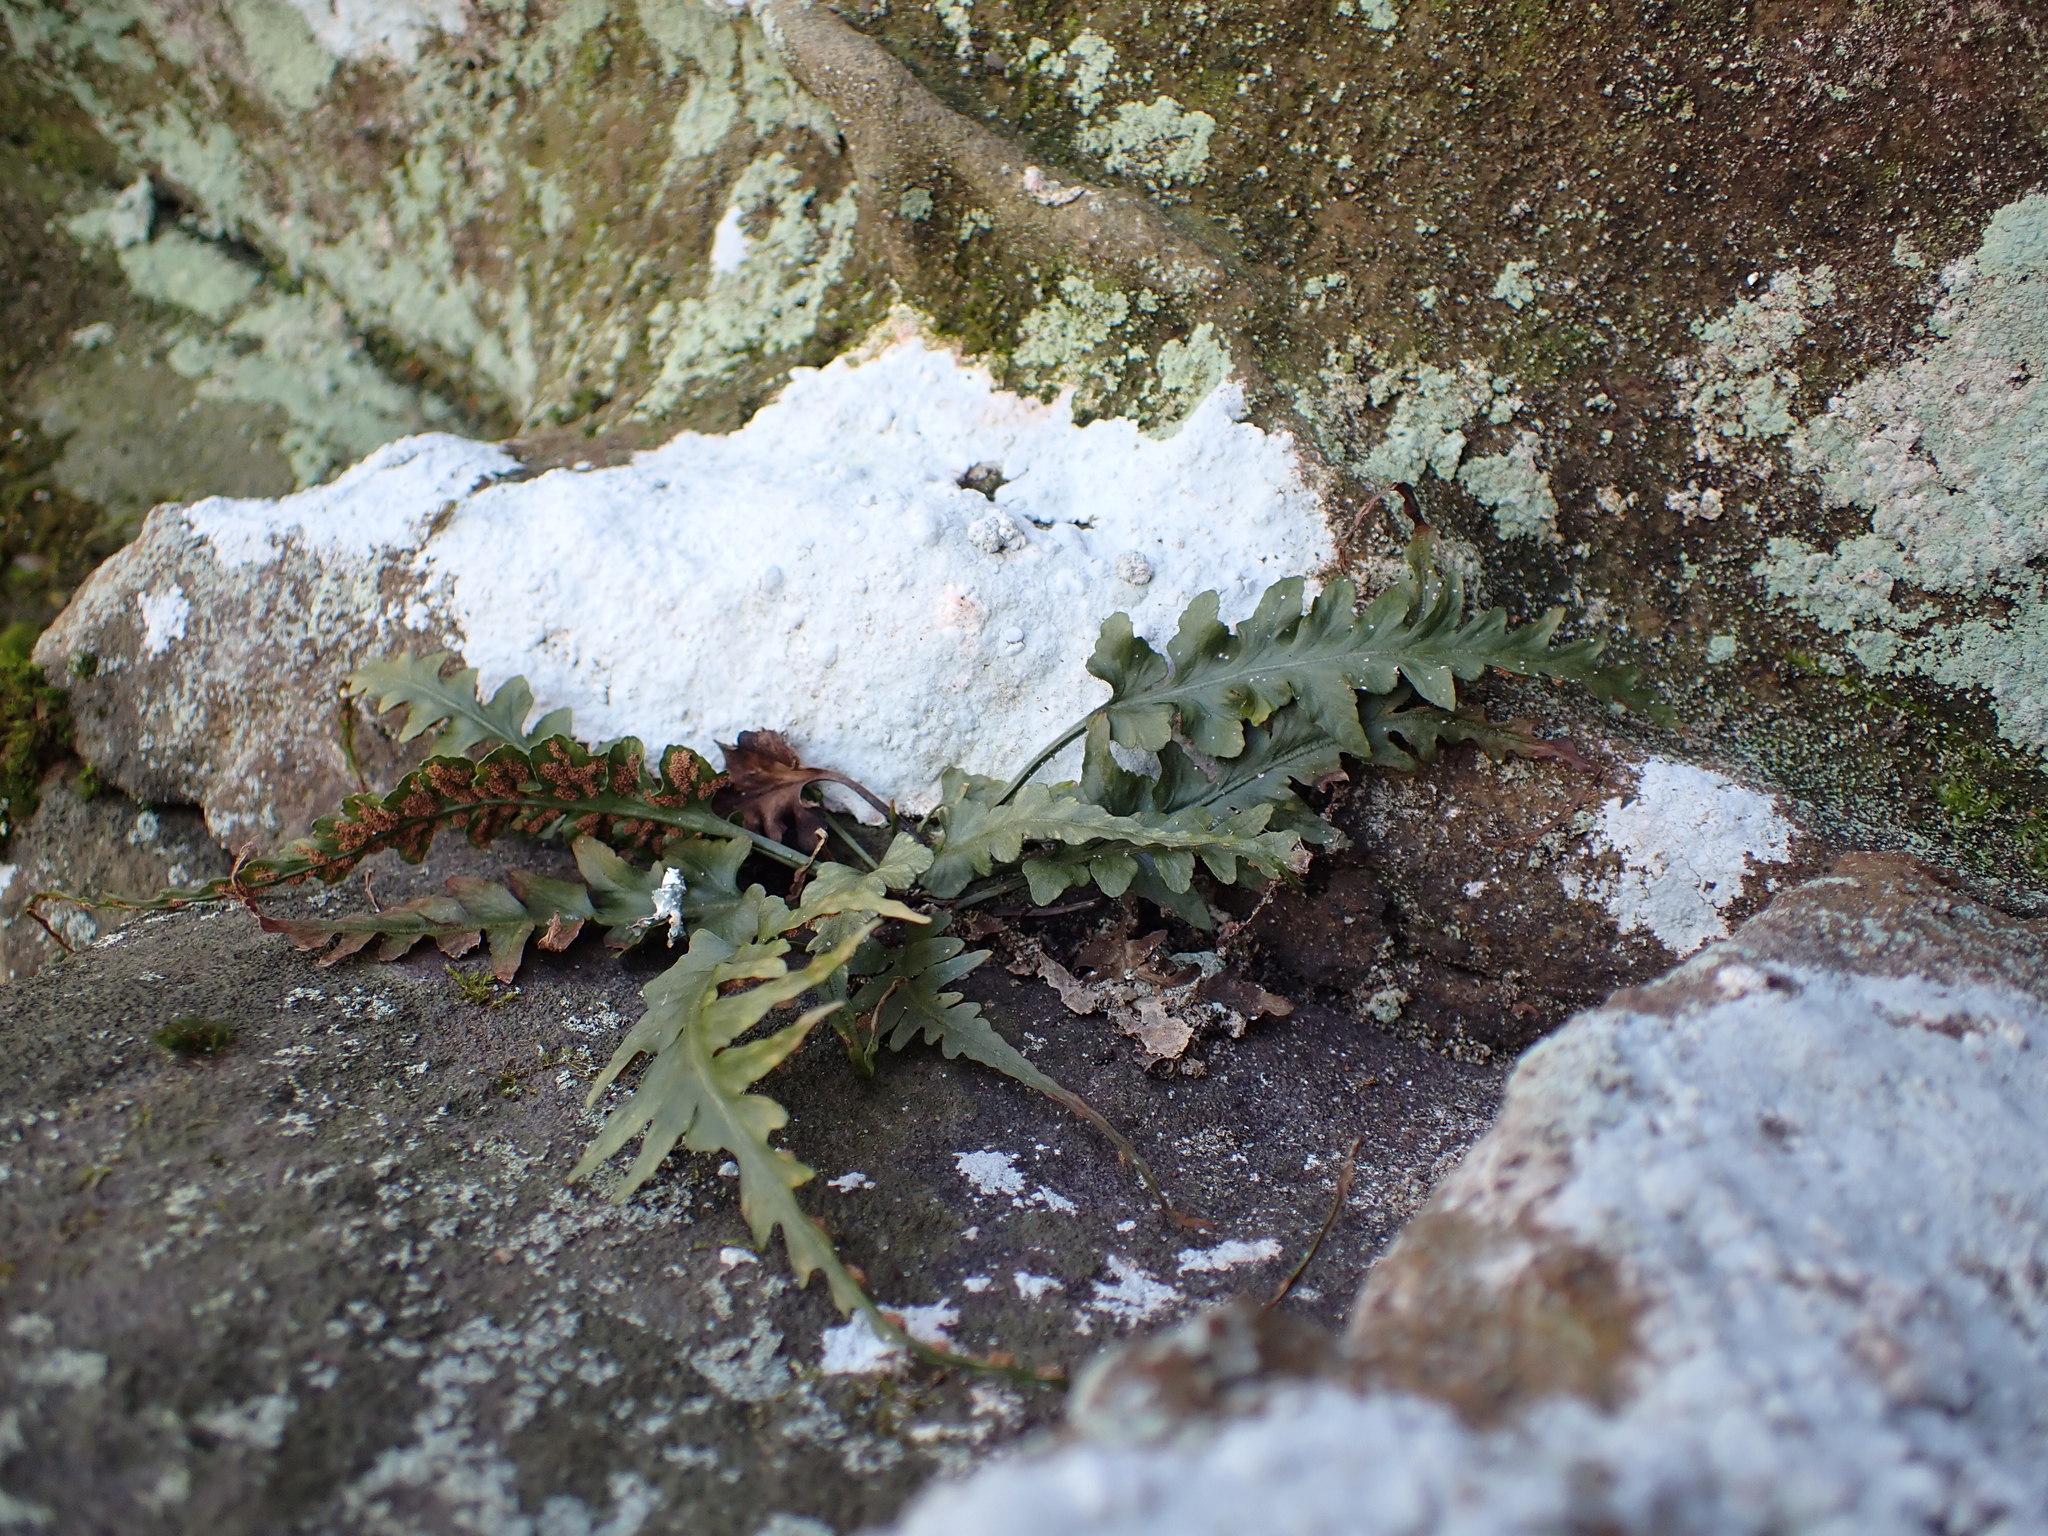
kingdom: Plantae
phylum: Tracheophyta
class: Polypodiopsida
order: Polypodiales
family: Aspleniaceae
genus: Asplenium
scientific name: Asplenium pinnatifidum
